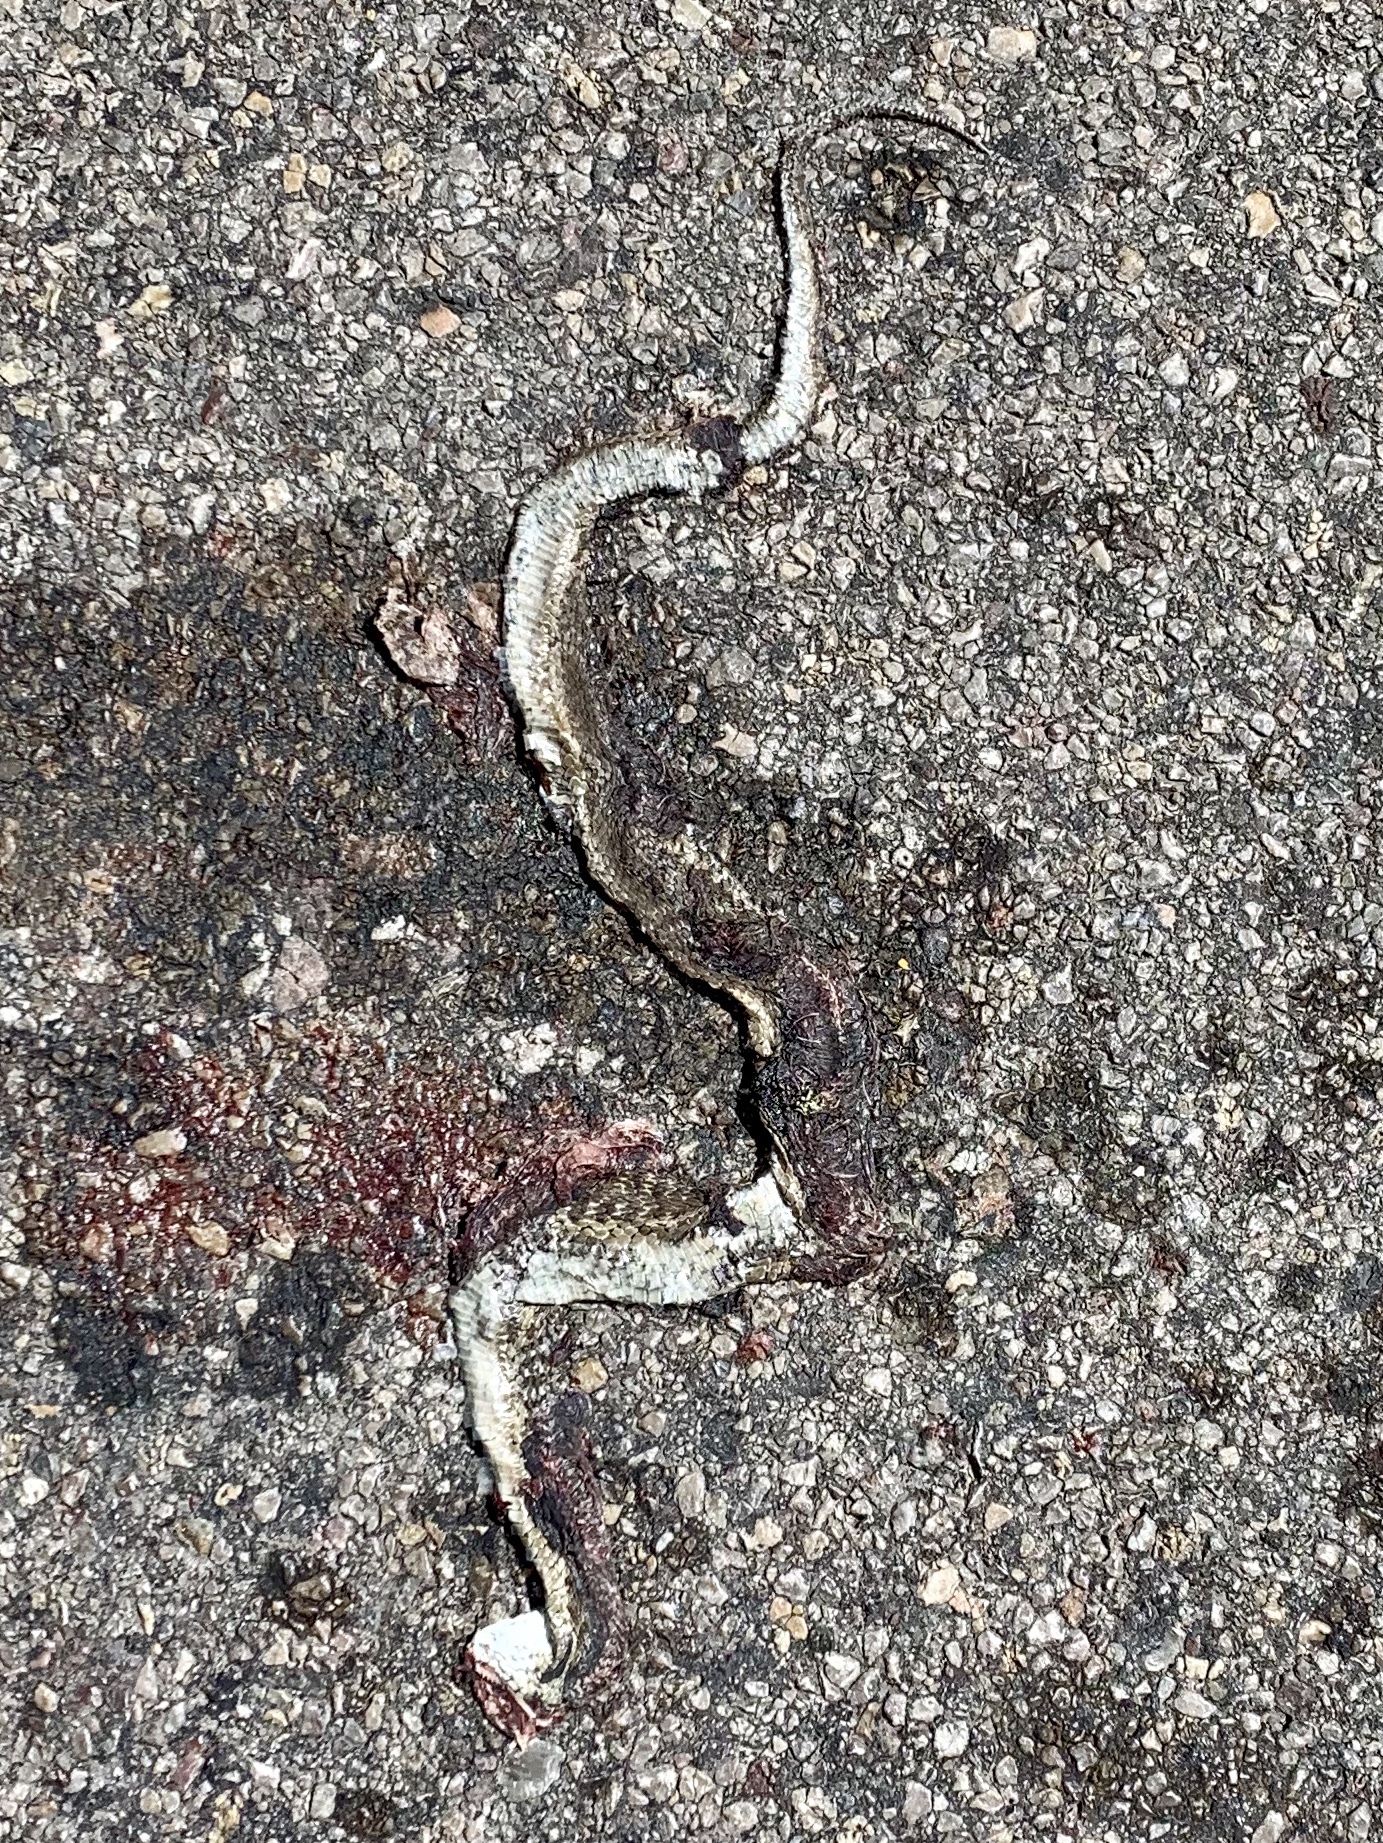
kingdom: Animalia
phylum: Chordata
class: Squamata
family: Colubridae
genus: Thamnophis
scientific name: Thamnophis elegans
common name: Western terrestrial garter snake
